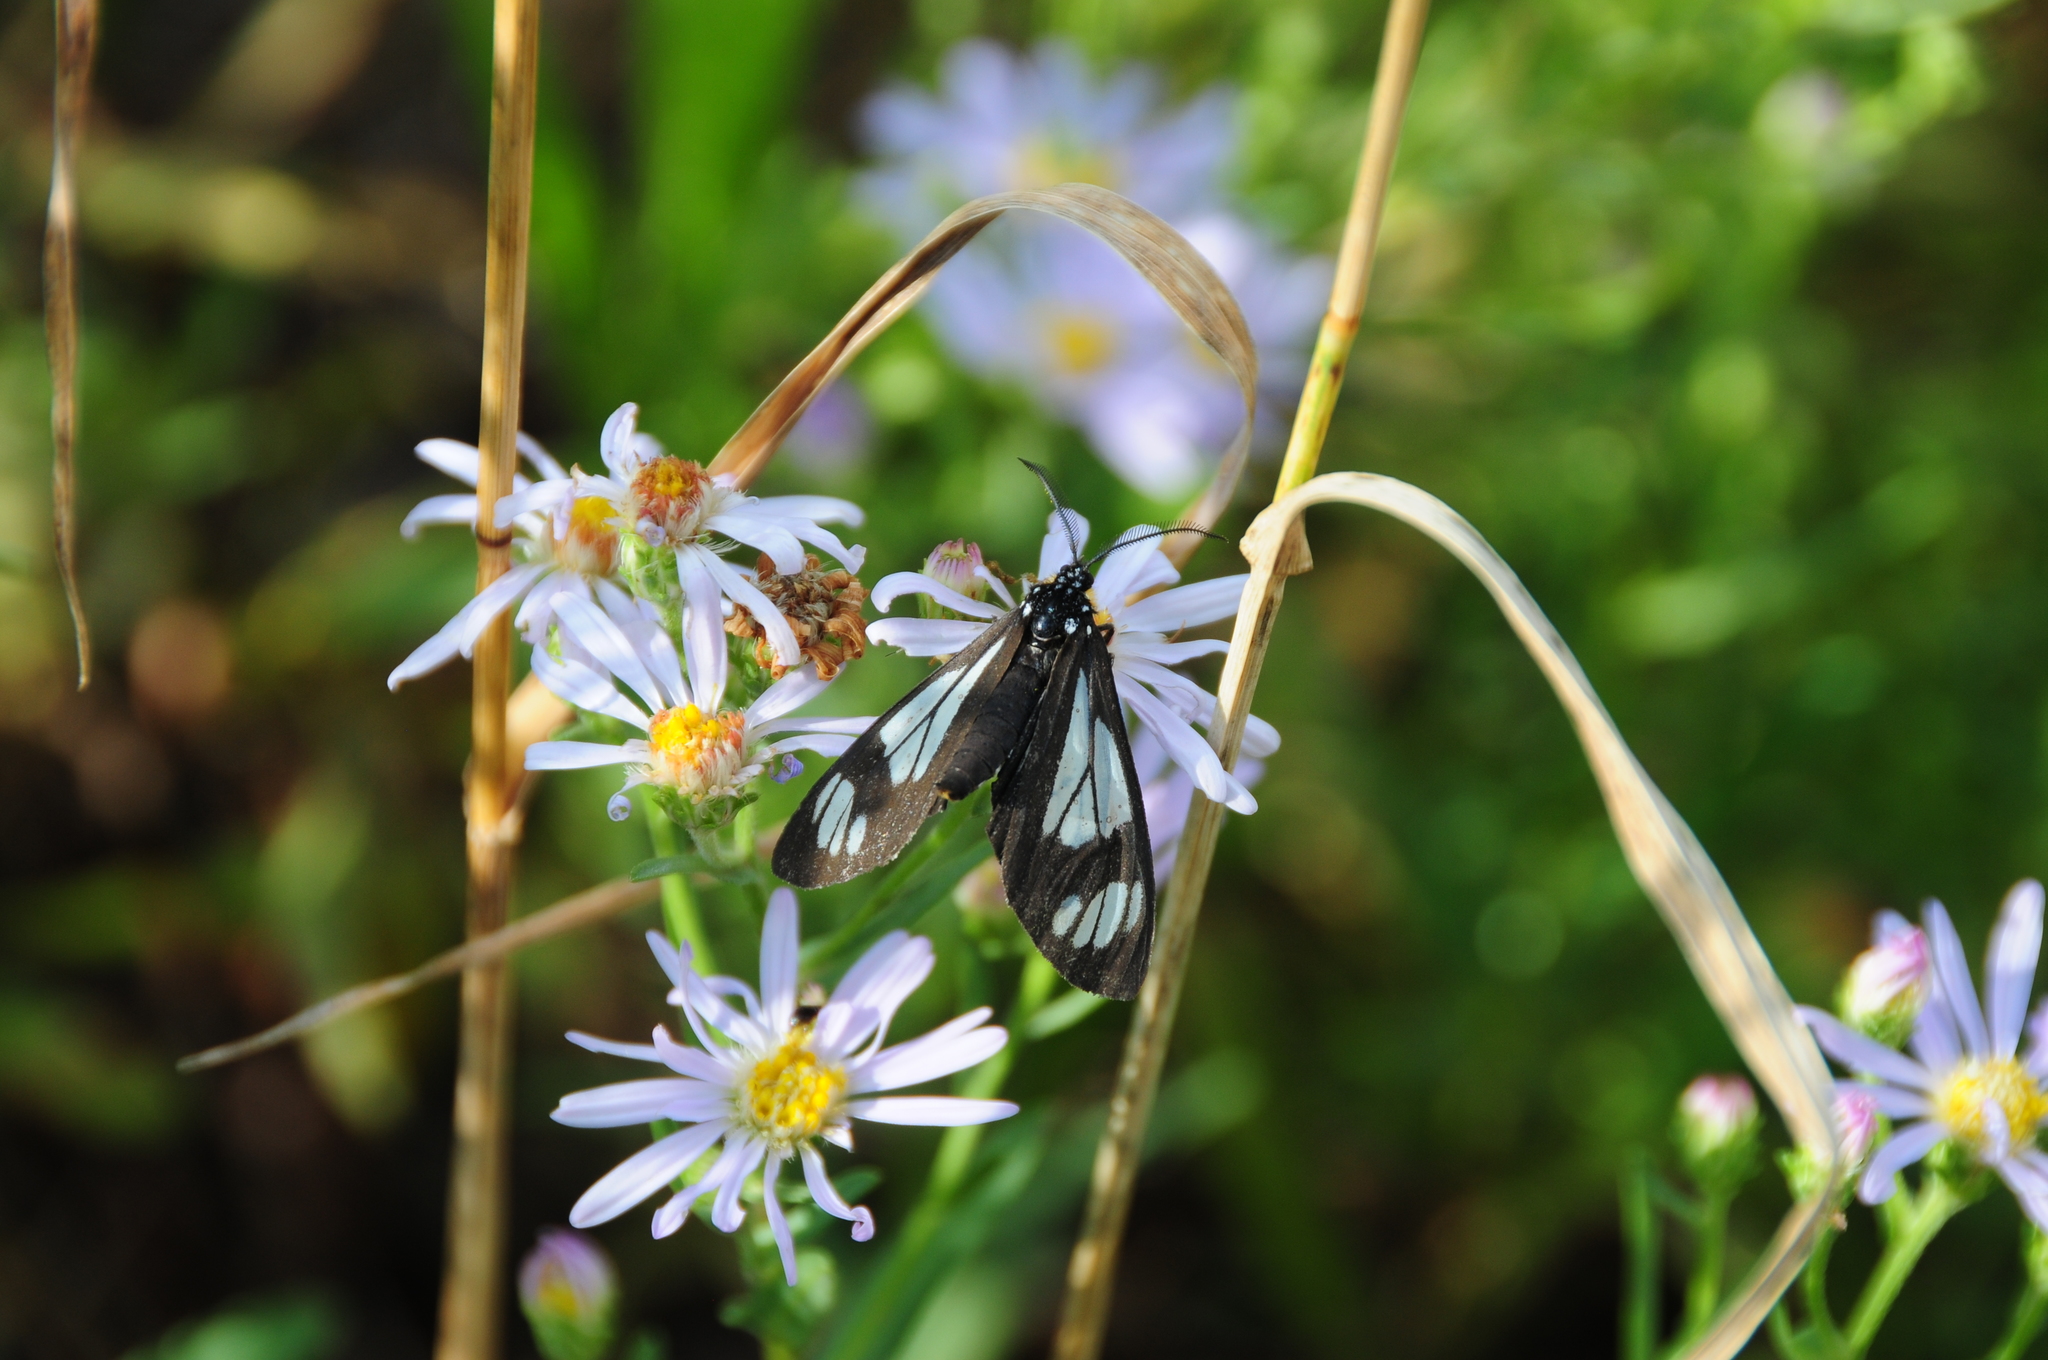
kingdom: Animalia
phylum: Arthropoda
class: Insecta
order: Lepidoptera
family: Erebidae
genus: Gnophaela
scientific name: Gnophaela vermiculata
